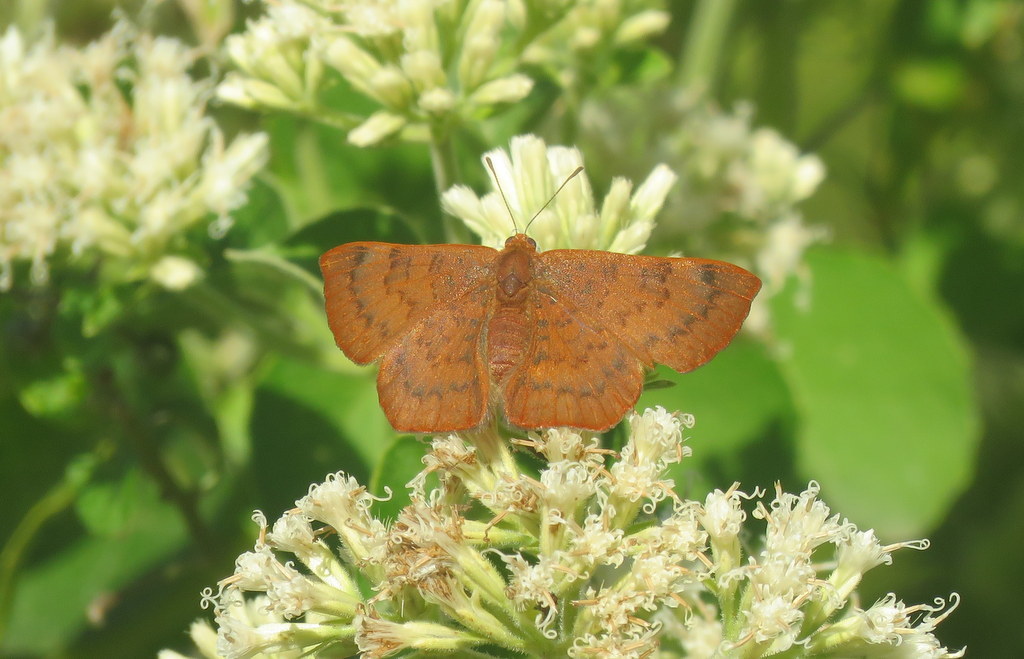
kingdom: Animalia
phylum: Arthropoda
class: Insecta
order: Lepidoptera
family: Lycaenidae
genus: Emesis
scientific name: Emesis russula
